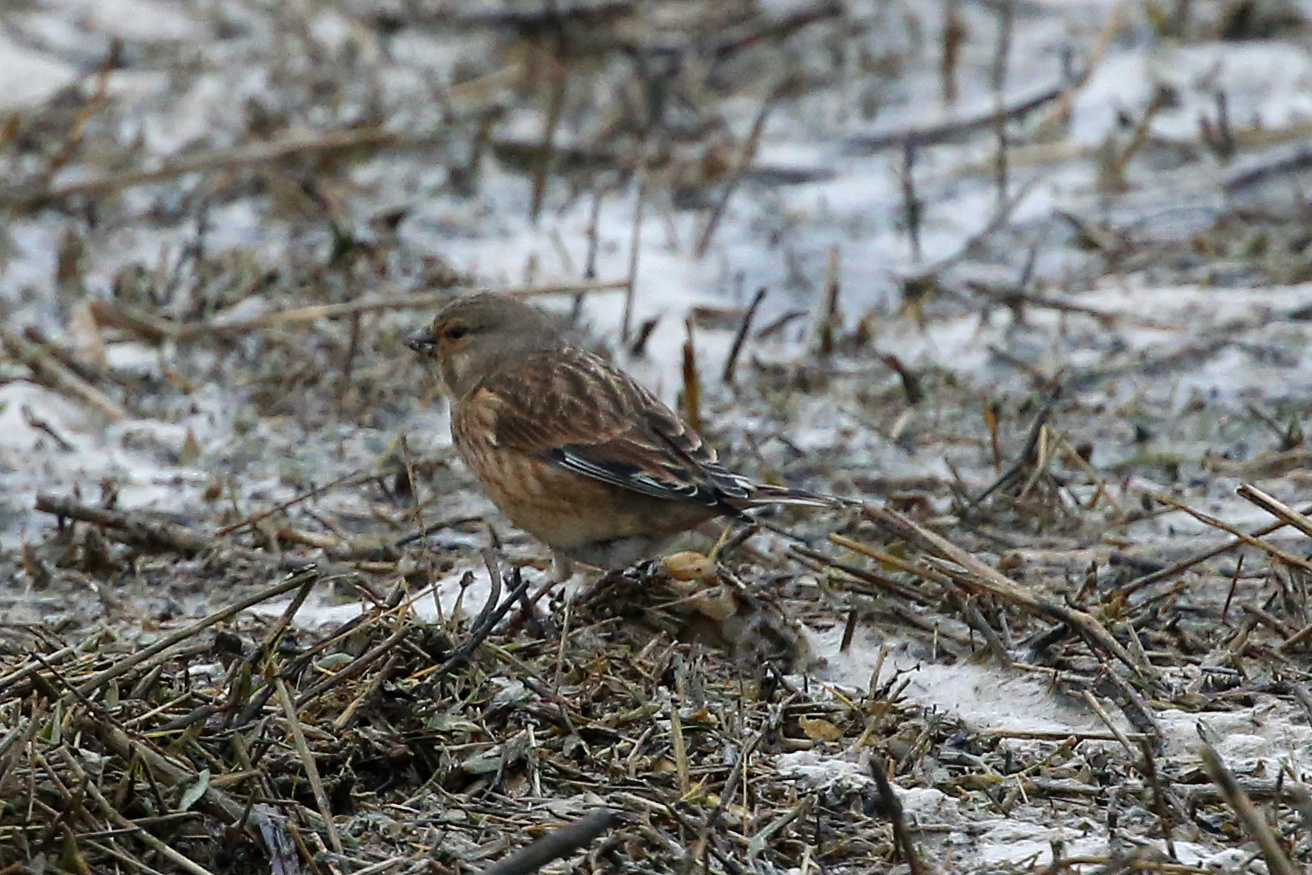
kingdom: Animalia
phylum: Chordata
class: Aves
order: Passeriformes
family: Fringillidae
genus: Linaria
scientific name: Linaria cannabina
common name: Common linnet
